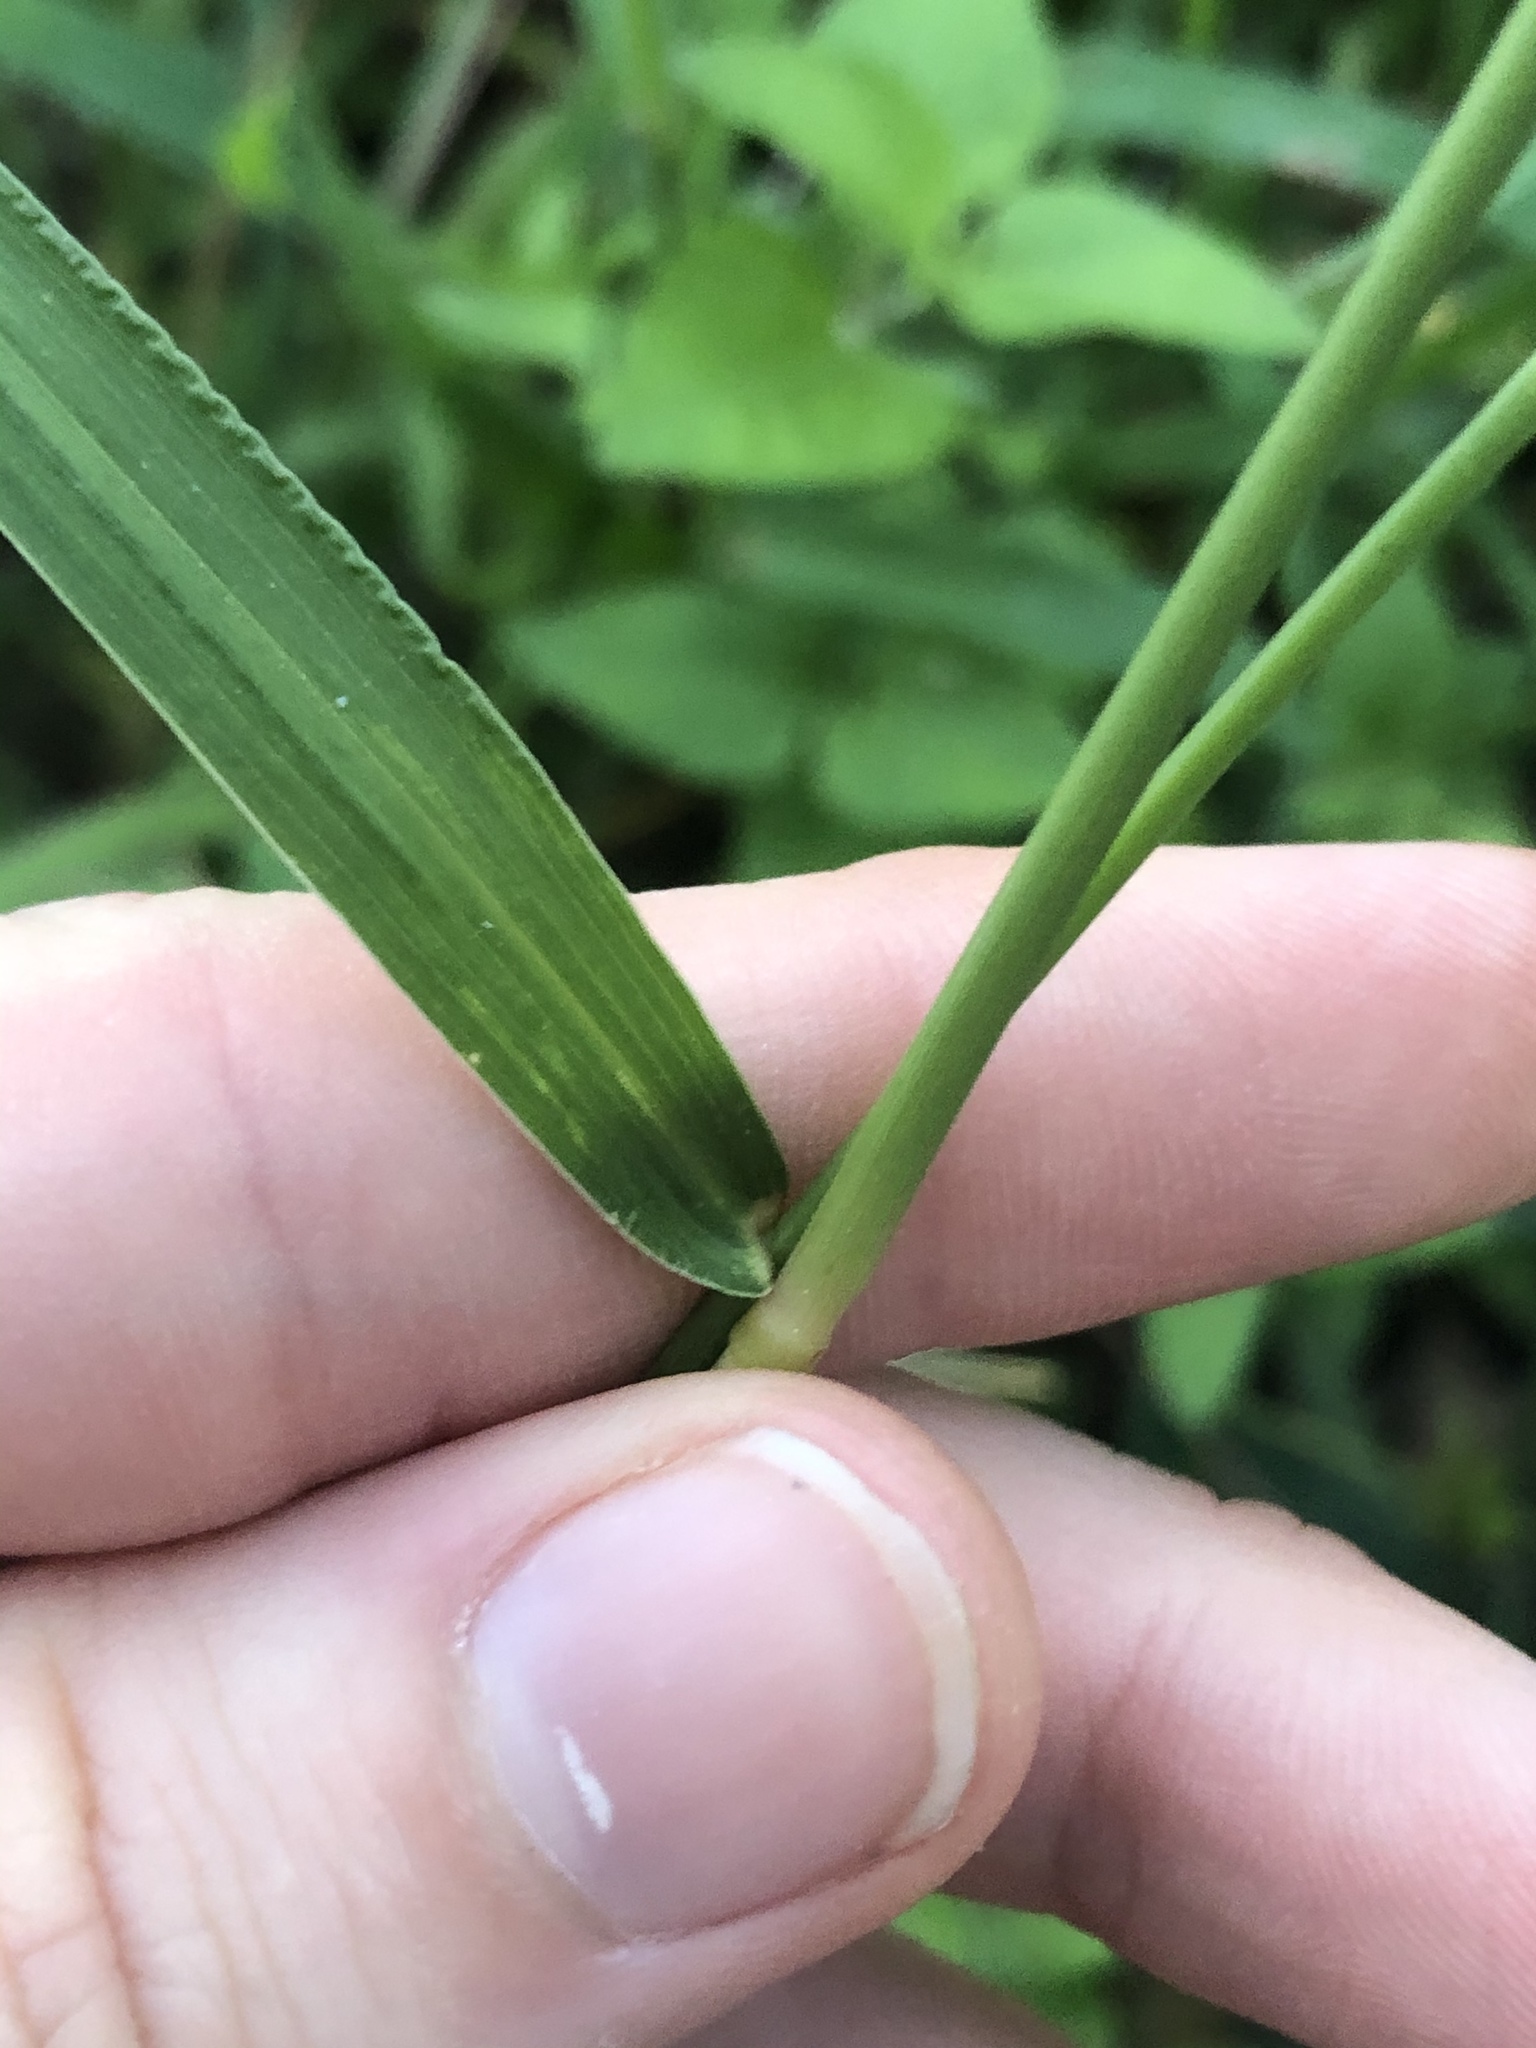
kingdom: Plantae
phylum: Tracheophyta
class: Liliopsida
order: Poales
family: Poaceae
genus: Setaria
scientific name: Setaria scheelei
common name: Southwestern bristle grass
